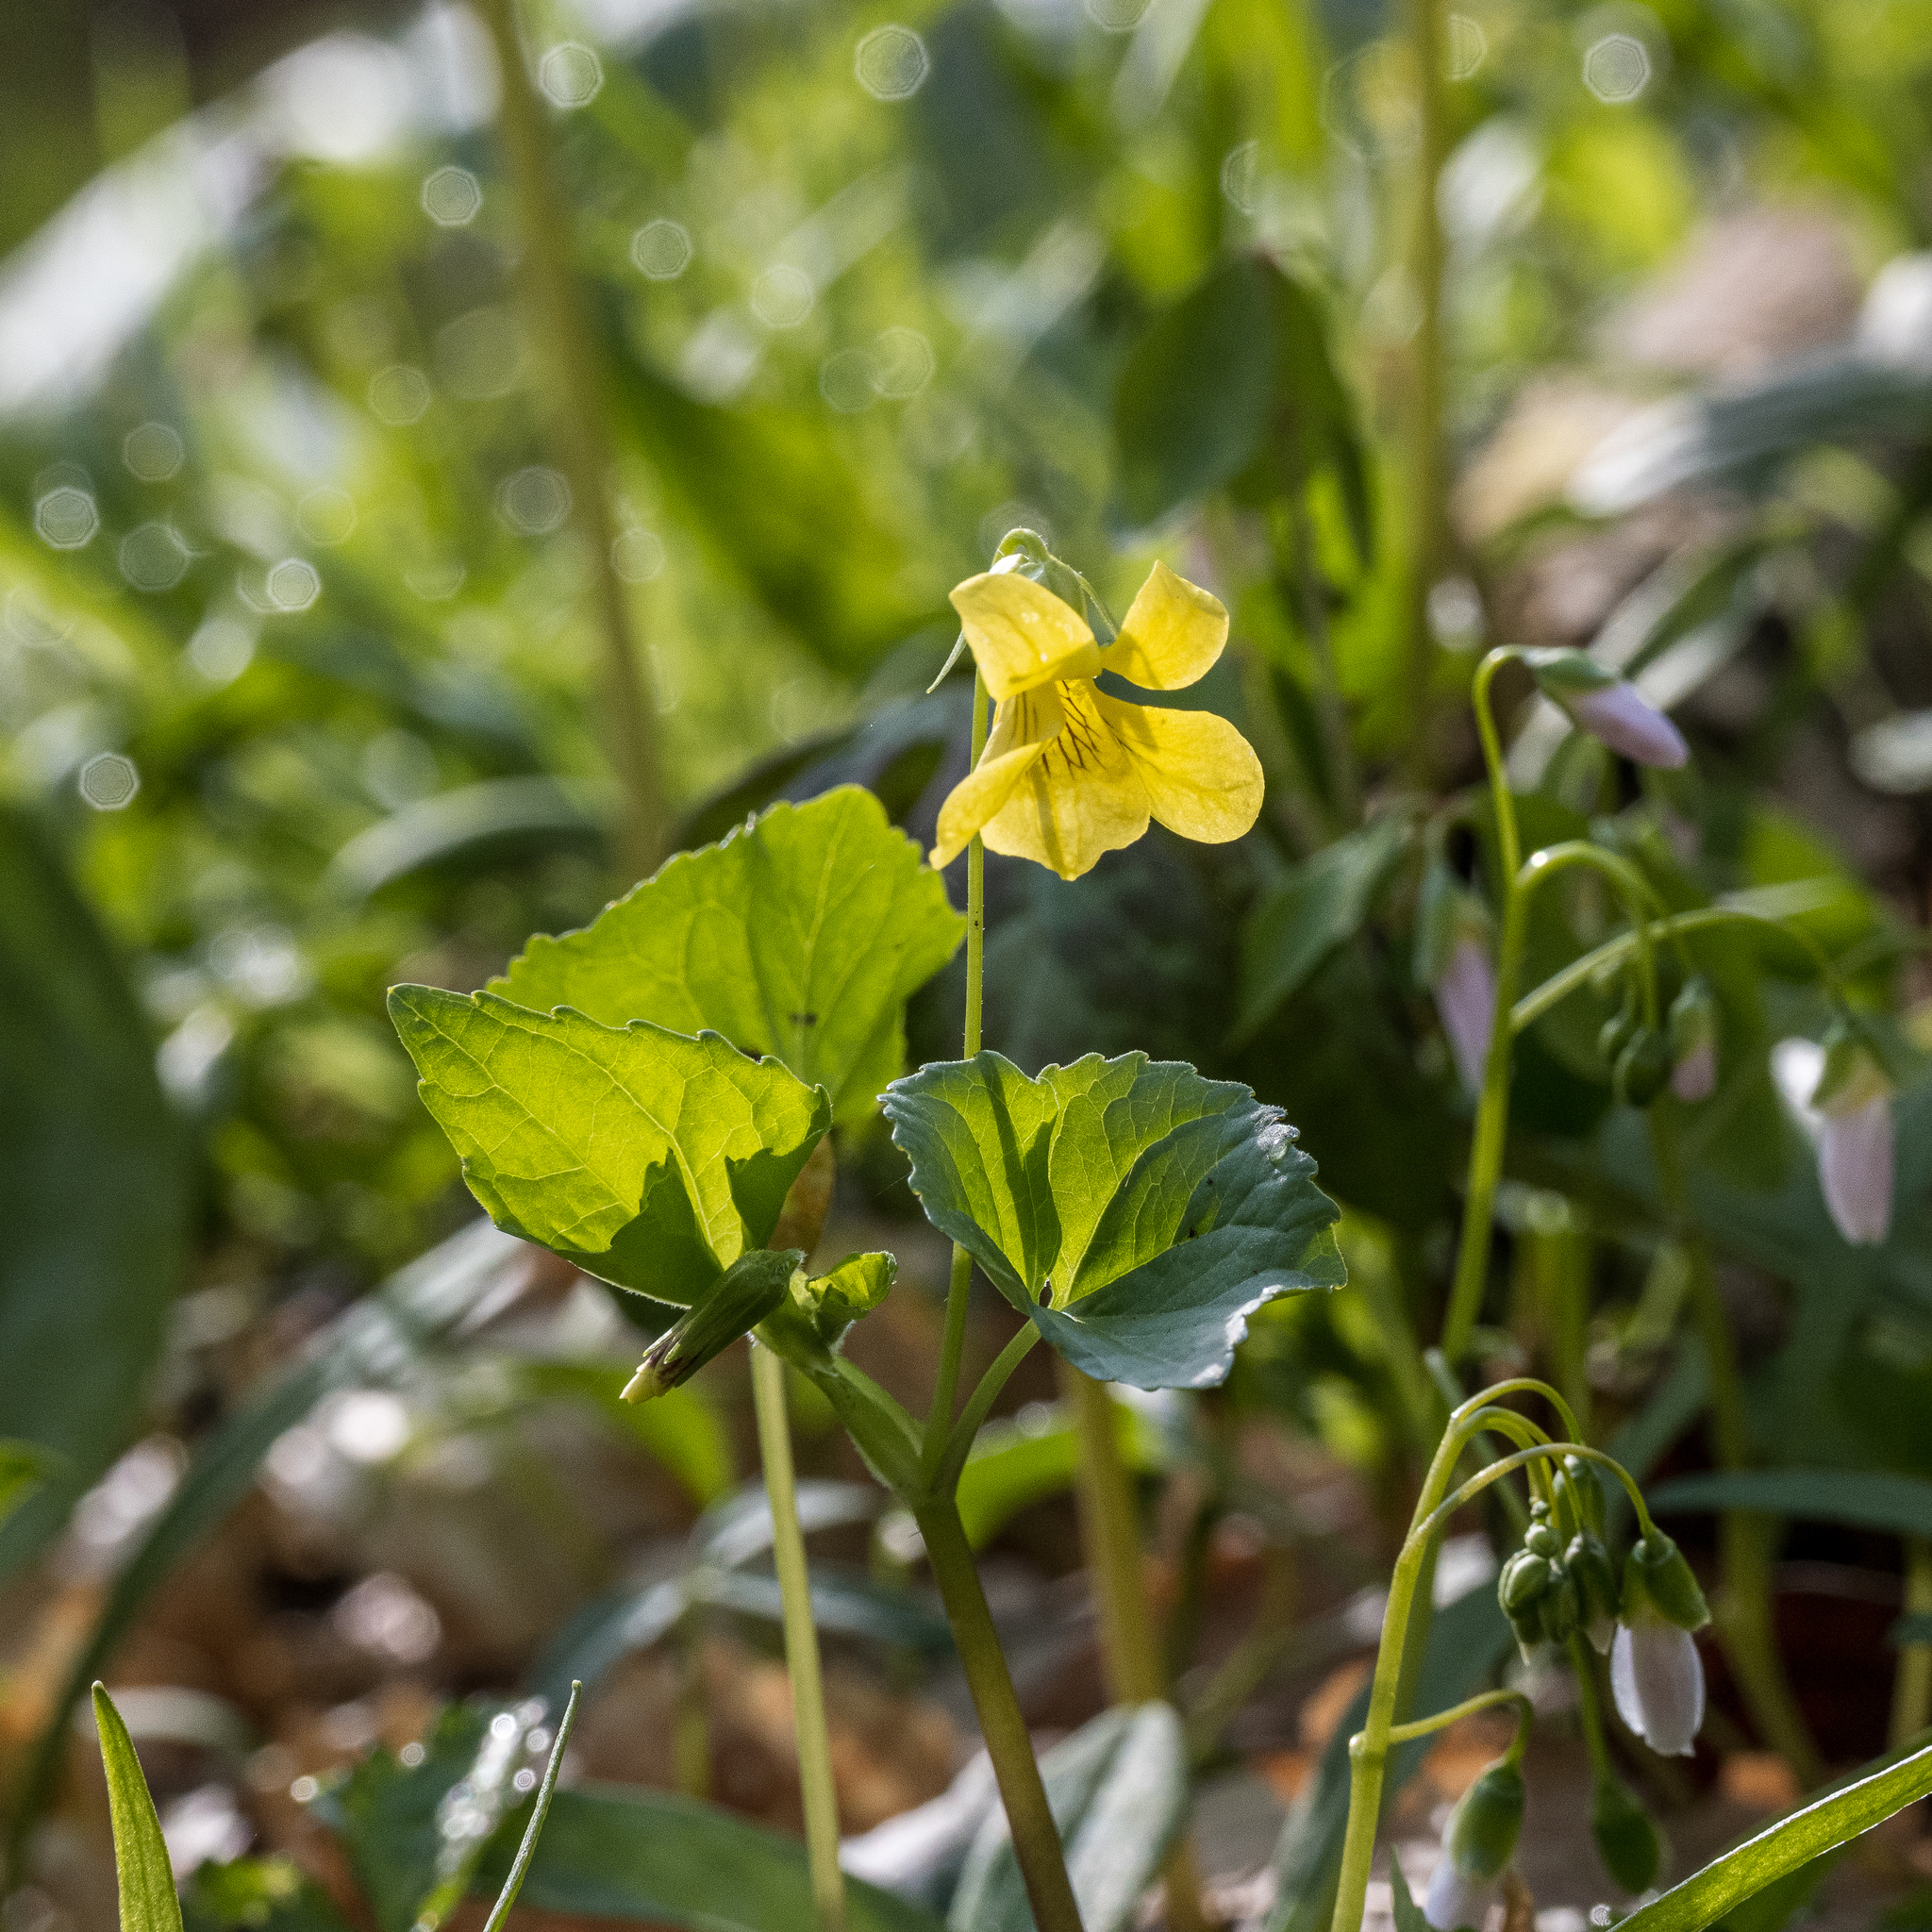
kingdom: Plantae
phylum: Tracheophyta
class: Magnoliopsida
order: Malpighiales
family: Violaceae
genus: Viola
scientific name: Viola eriocarpa
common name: Smooth yellow violet
